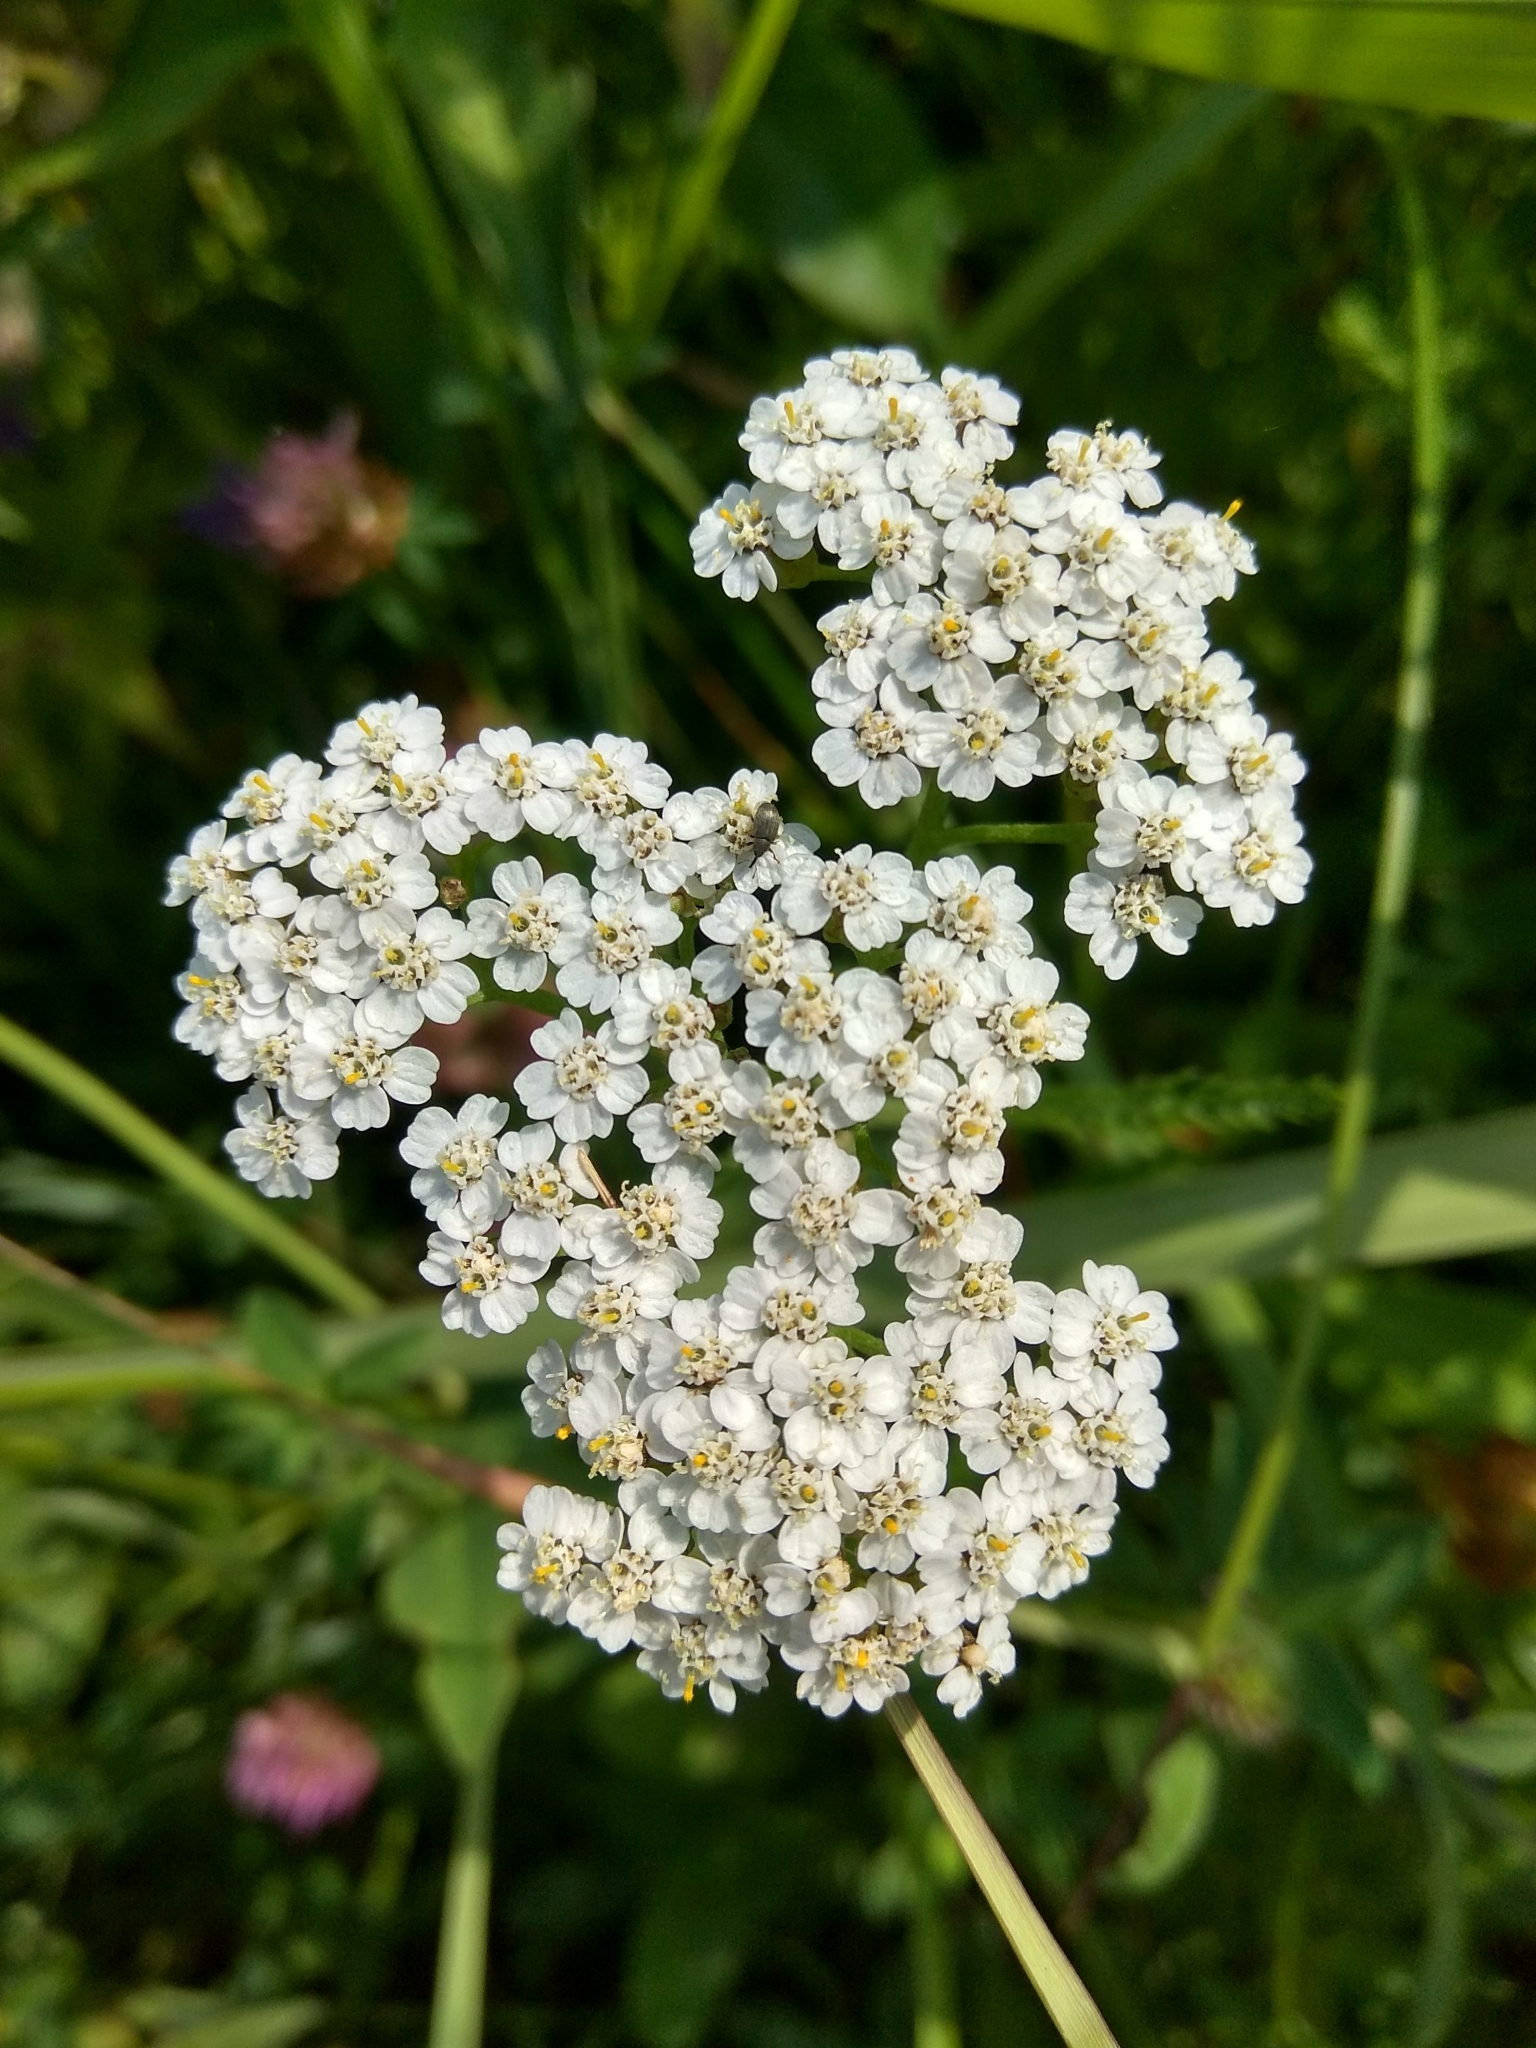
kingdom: Plantae
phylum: Tracheophyta
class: Magnoliopsida
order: Asterales
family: Asteraceae
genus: Achillea
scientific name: Achillea millefolium
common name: Yarrow
